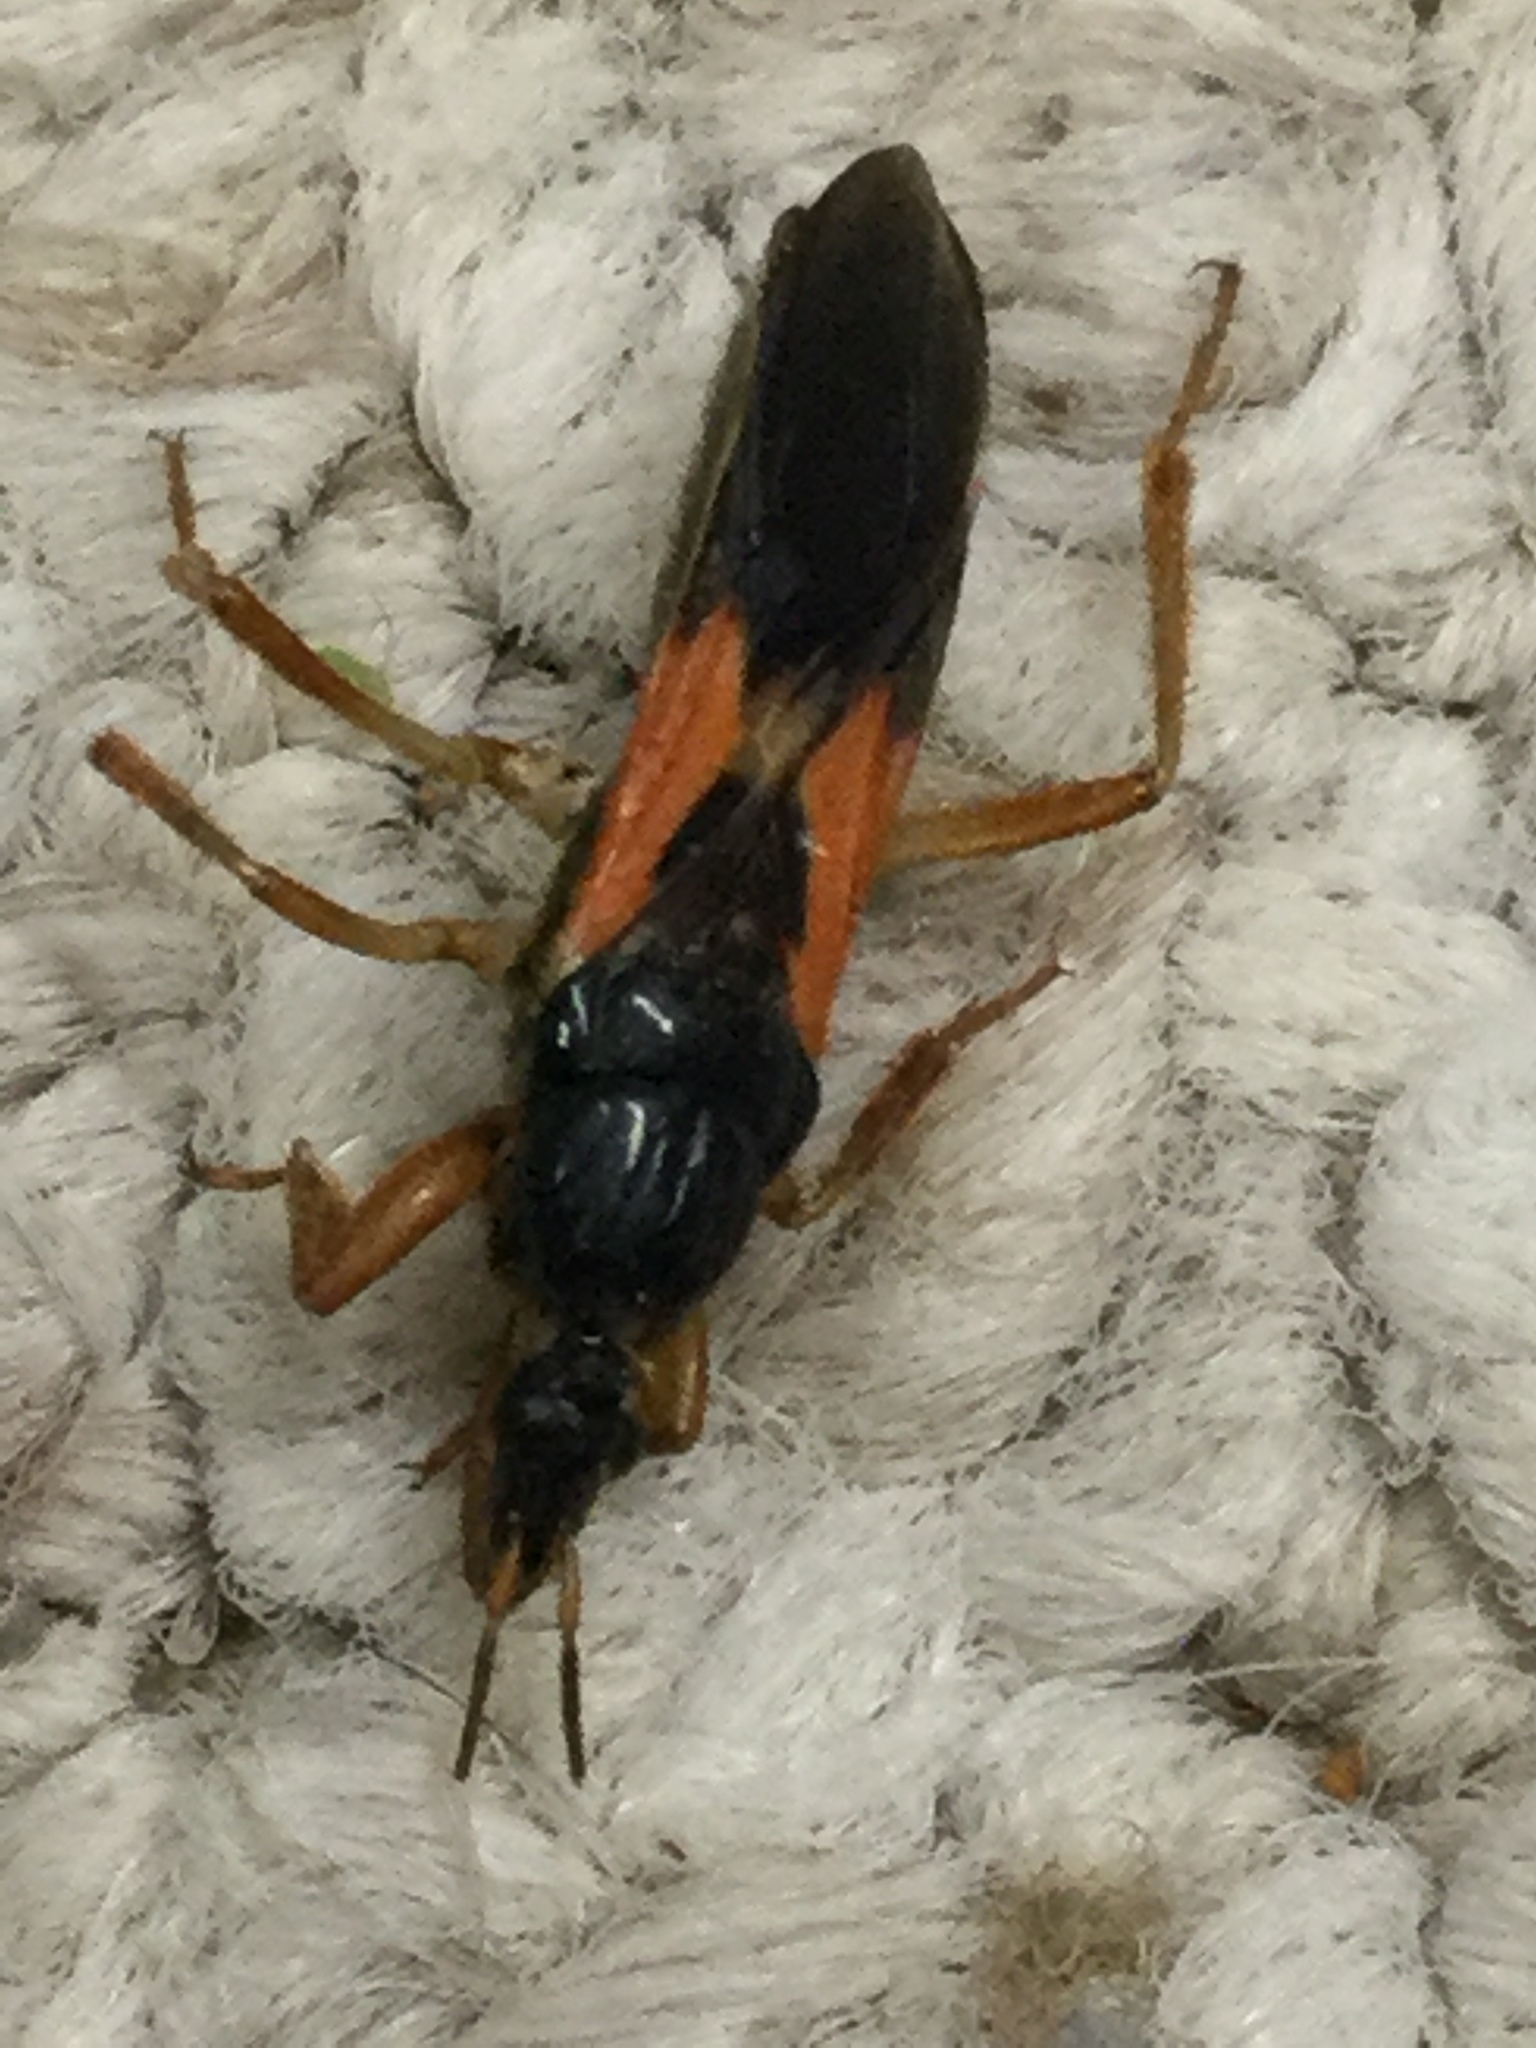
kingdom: Animalia
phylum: Arthropoda
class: Insecta
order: Hemiptera
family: Reduviidae
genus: Sirthenea
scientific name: Sirthenea stria
